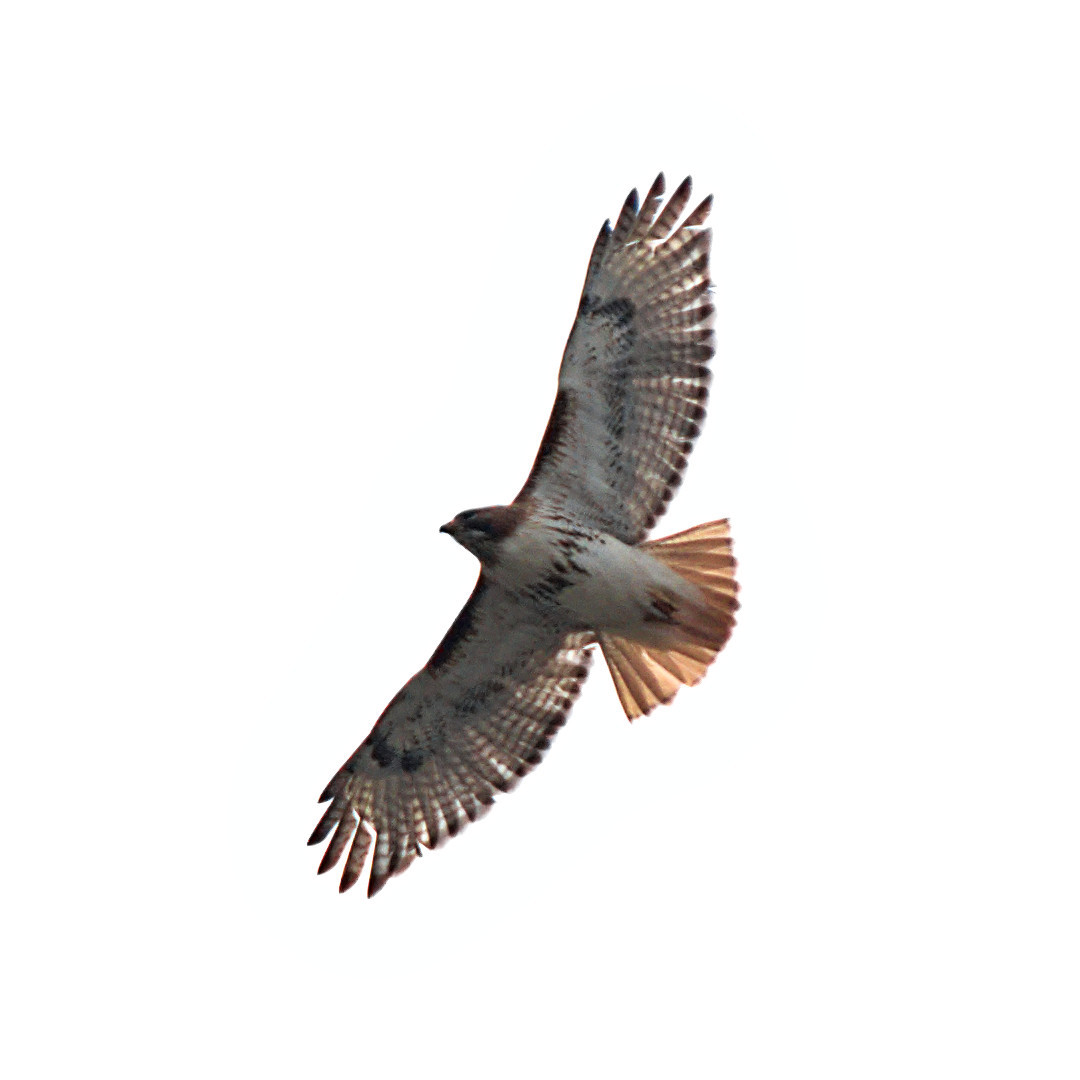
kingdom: Animalia
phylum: Chordata
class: Aves
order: Accipitriformes
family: Accipitridae
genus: Buteo
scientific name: Buteo jamaicensis
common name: Red-tailed hawk
